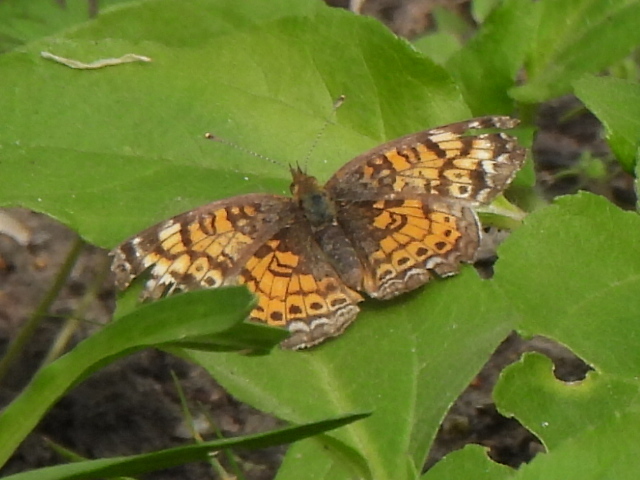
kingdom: Animalia
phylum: Arthropoda
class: Insecta
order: Lepidoptera
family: Nymphalidae
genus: Phyciodes
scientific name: Phyciodes tharos
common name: Pearl crescent
